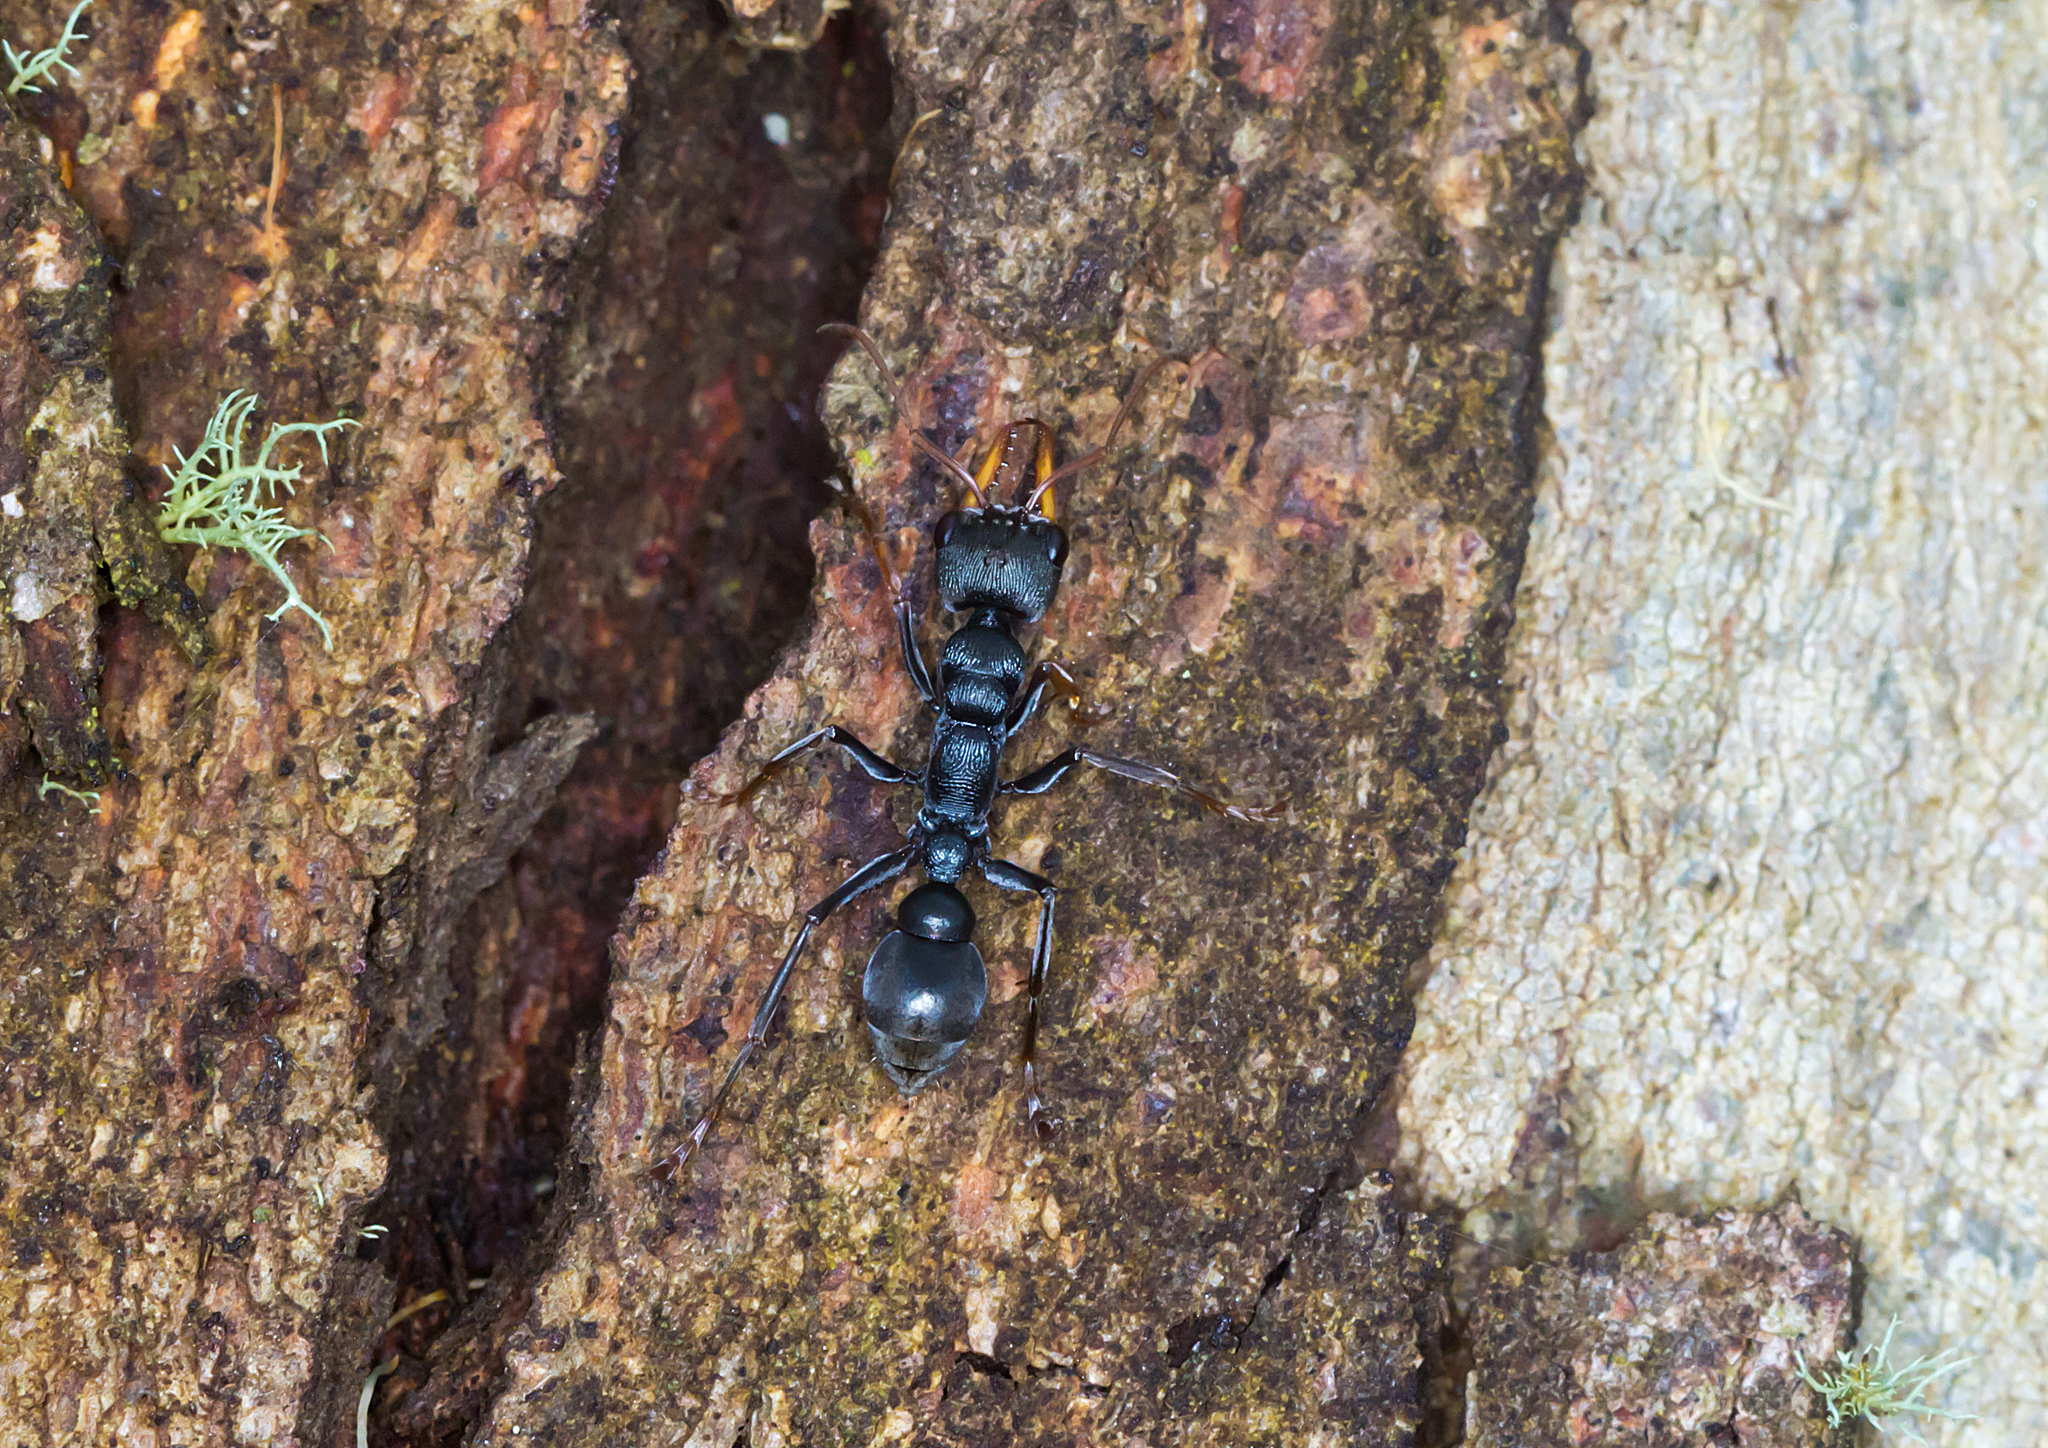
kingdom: Animalia
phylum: Arthropoda
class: Insecta
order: Hymenoptera
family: Formicidae
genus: Myrmecia
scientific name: Myrmecia pilosula
